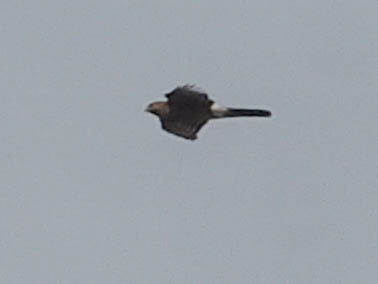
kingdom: Animalia
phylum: Chordata
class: Aves
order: Accipitriformes
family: Accipitridae
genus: Accipiter
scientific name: Accipiter cooperii
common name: Cooper's hawk
